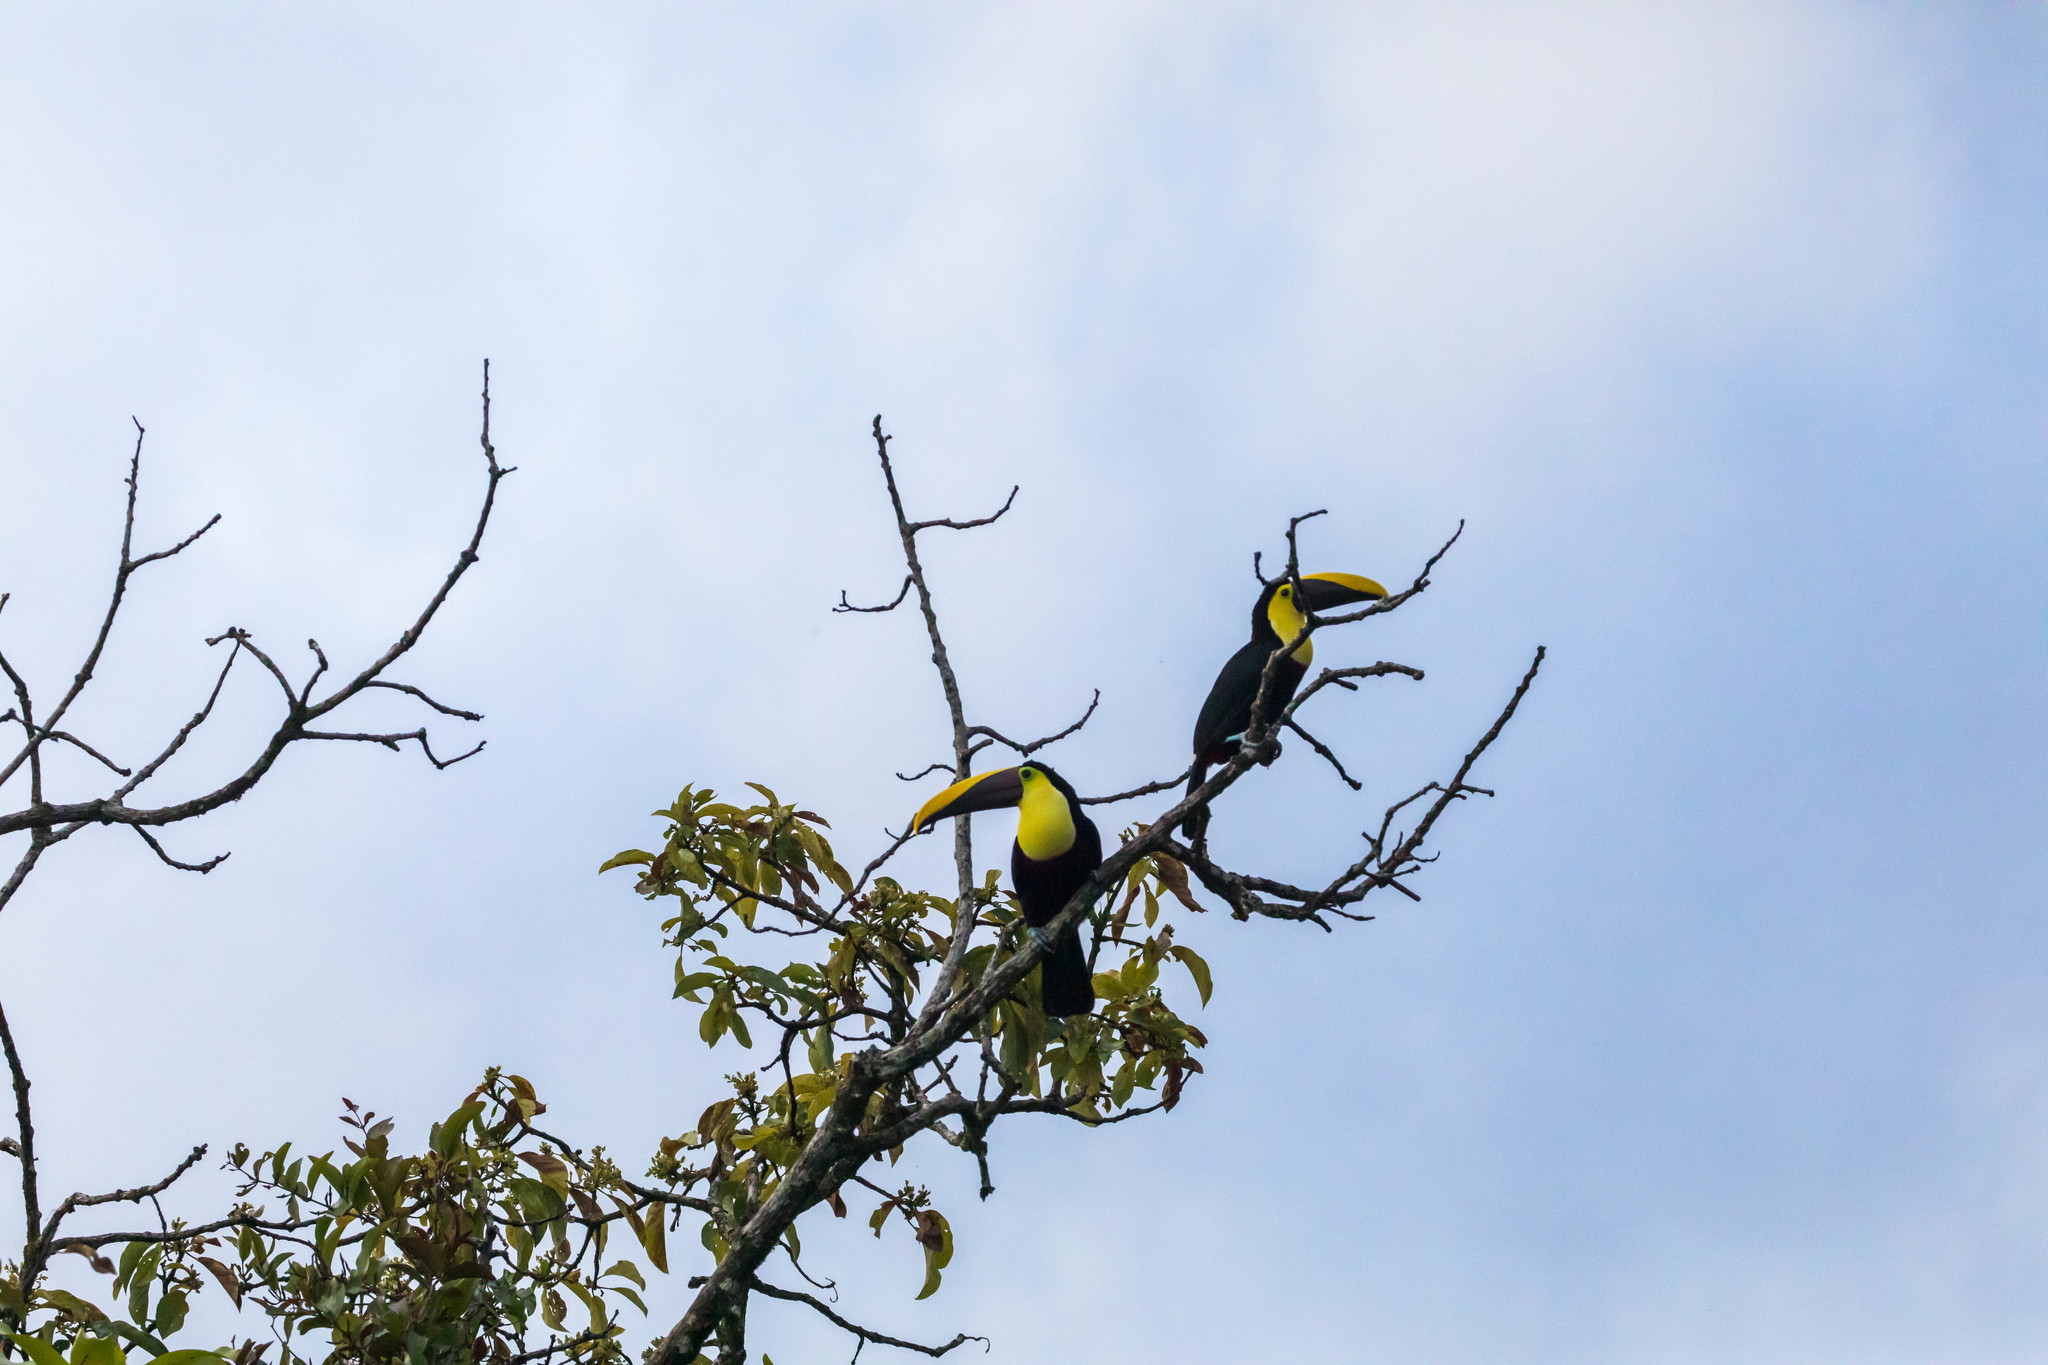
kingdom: Animalia
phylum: Chordata
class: Aves
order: Piciformes
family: Ramphastidae
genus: Ramphastos
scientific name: Ramphastos ambiguus
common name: Yellow-throated toucan
